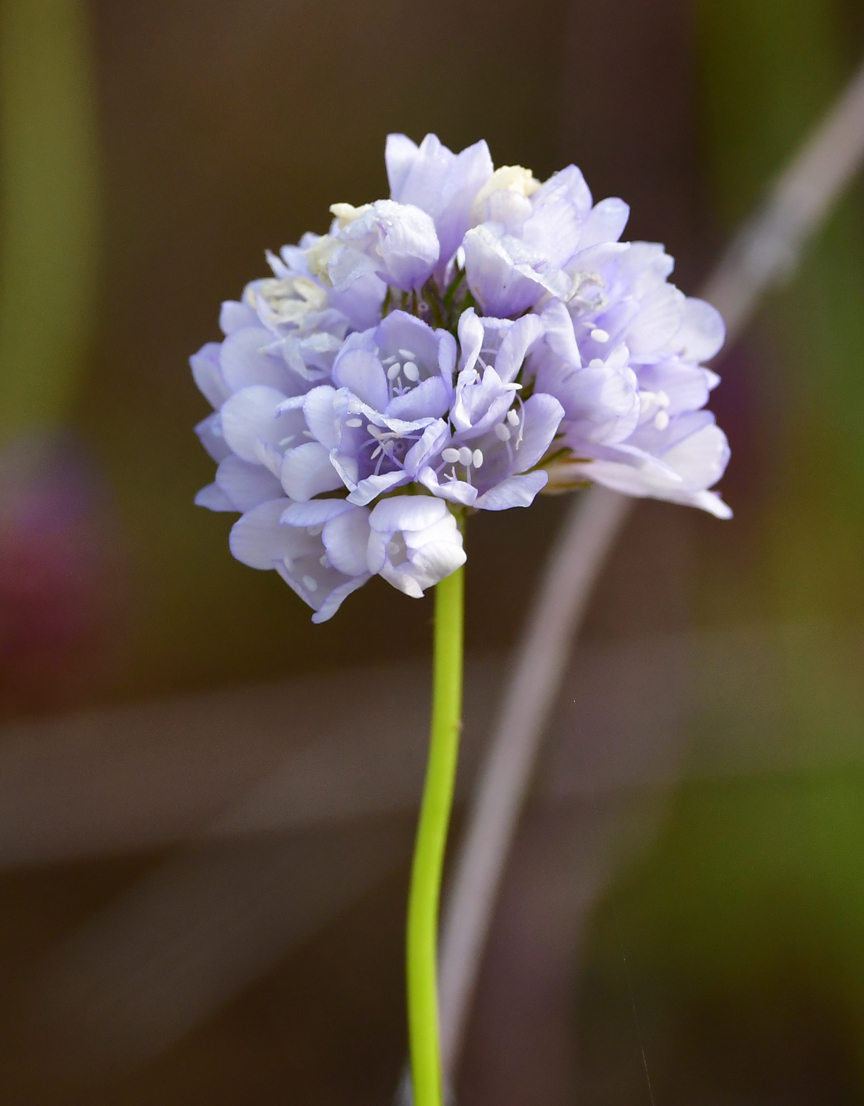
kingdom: Plantae
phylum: Tracheophyta
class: Magnoliopsida
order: Ericales
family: Polemoniaceae
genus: Gilia
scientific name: Gilia capitata
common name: Bluehead gilia
